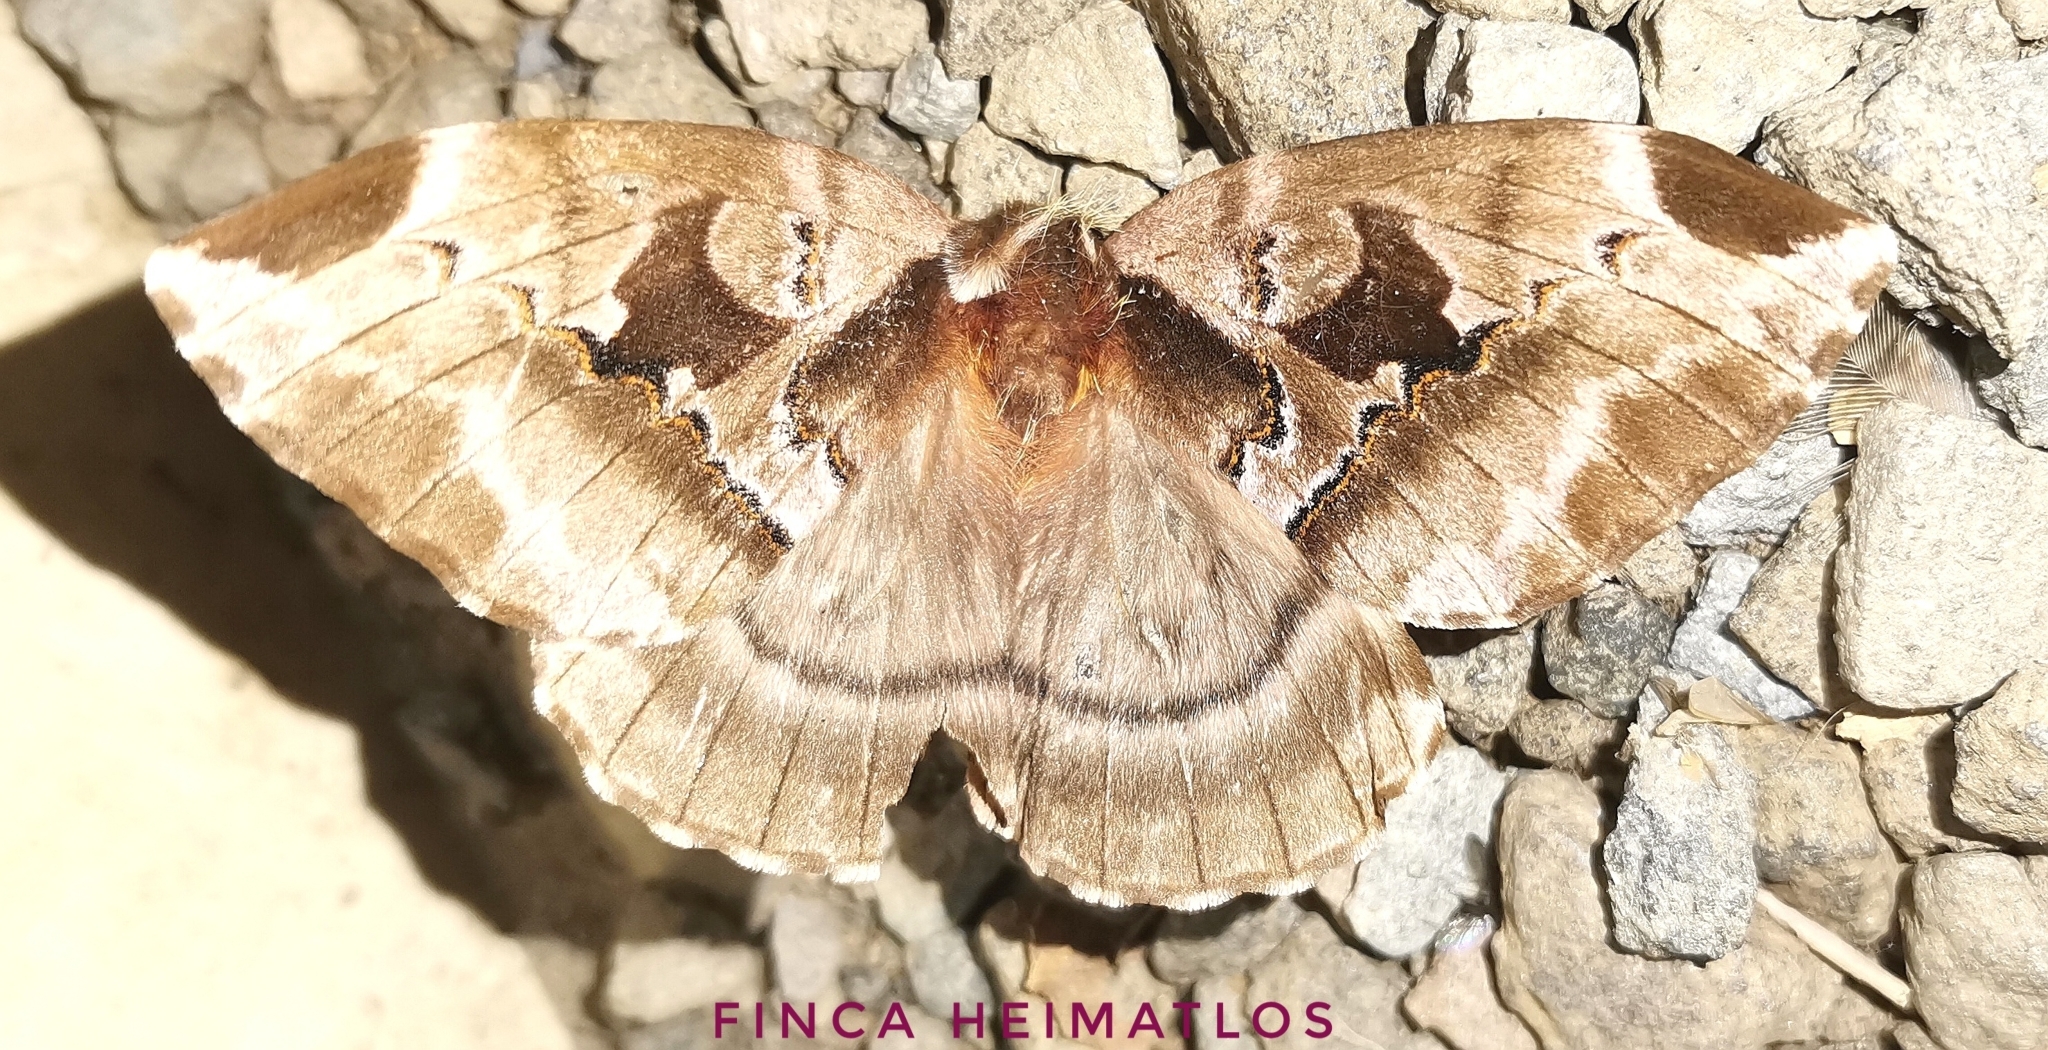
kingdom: Animalia
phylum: Arthropoda
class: Insecta
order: Lepidoptera
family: Saturniidae
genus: Molippa
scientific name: Molippa latemedia
